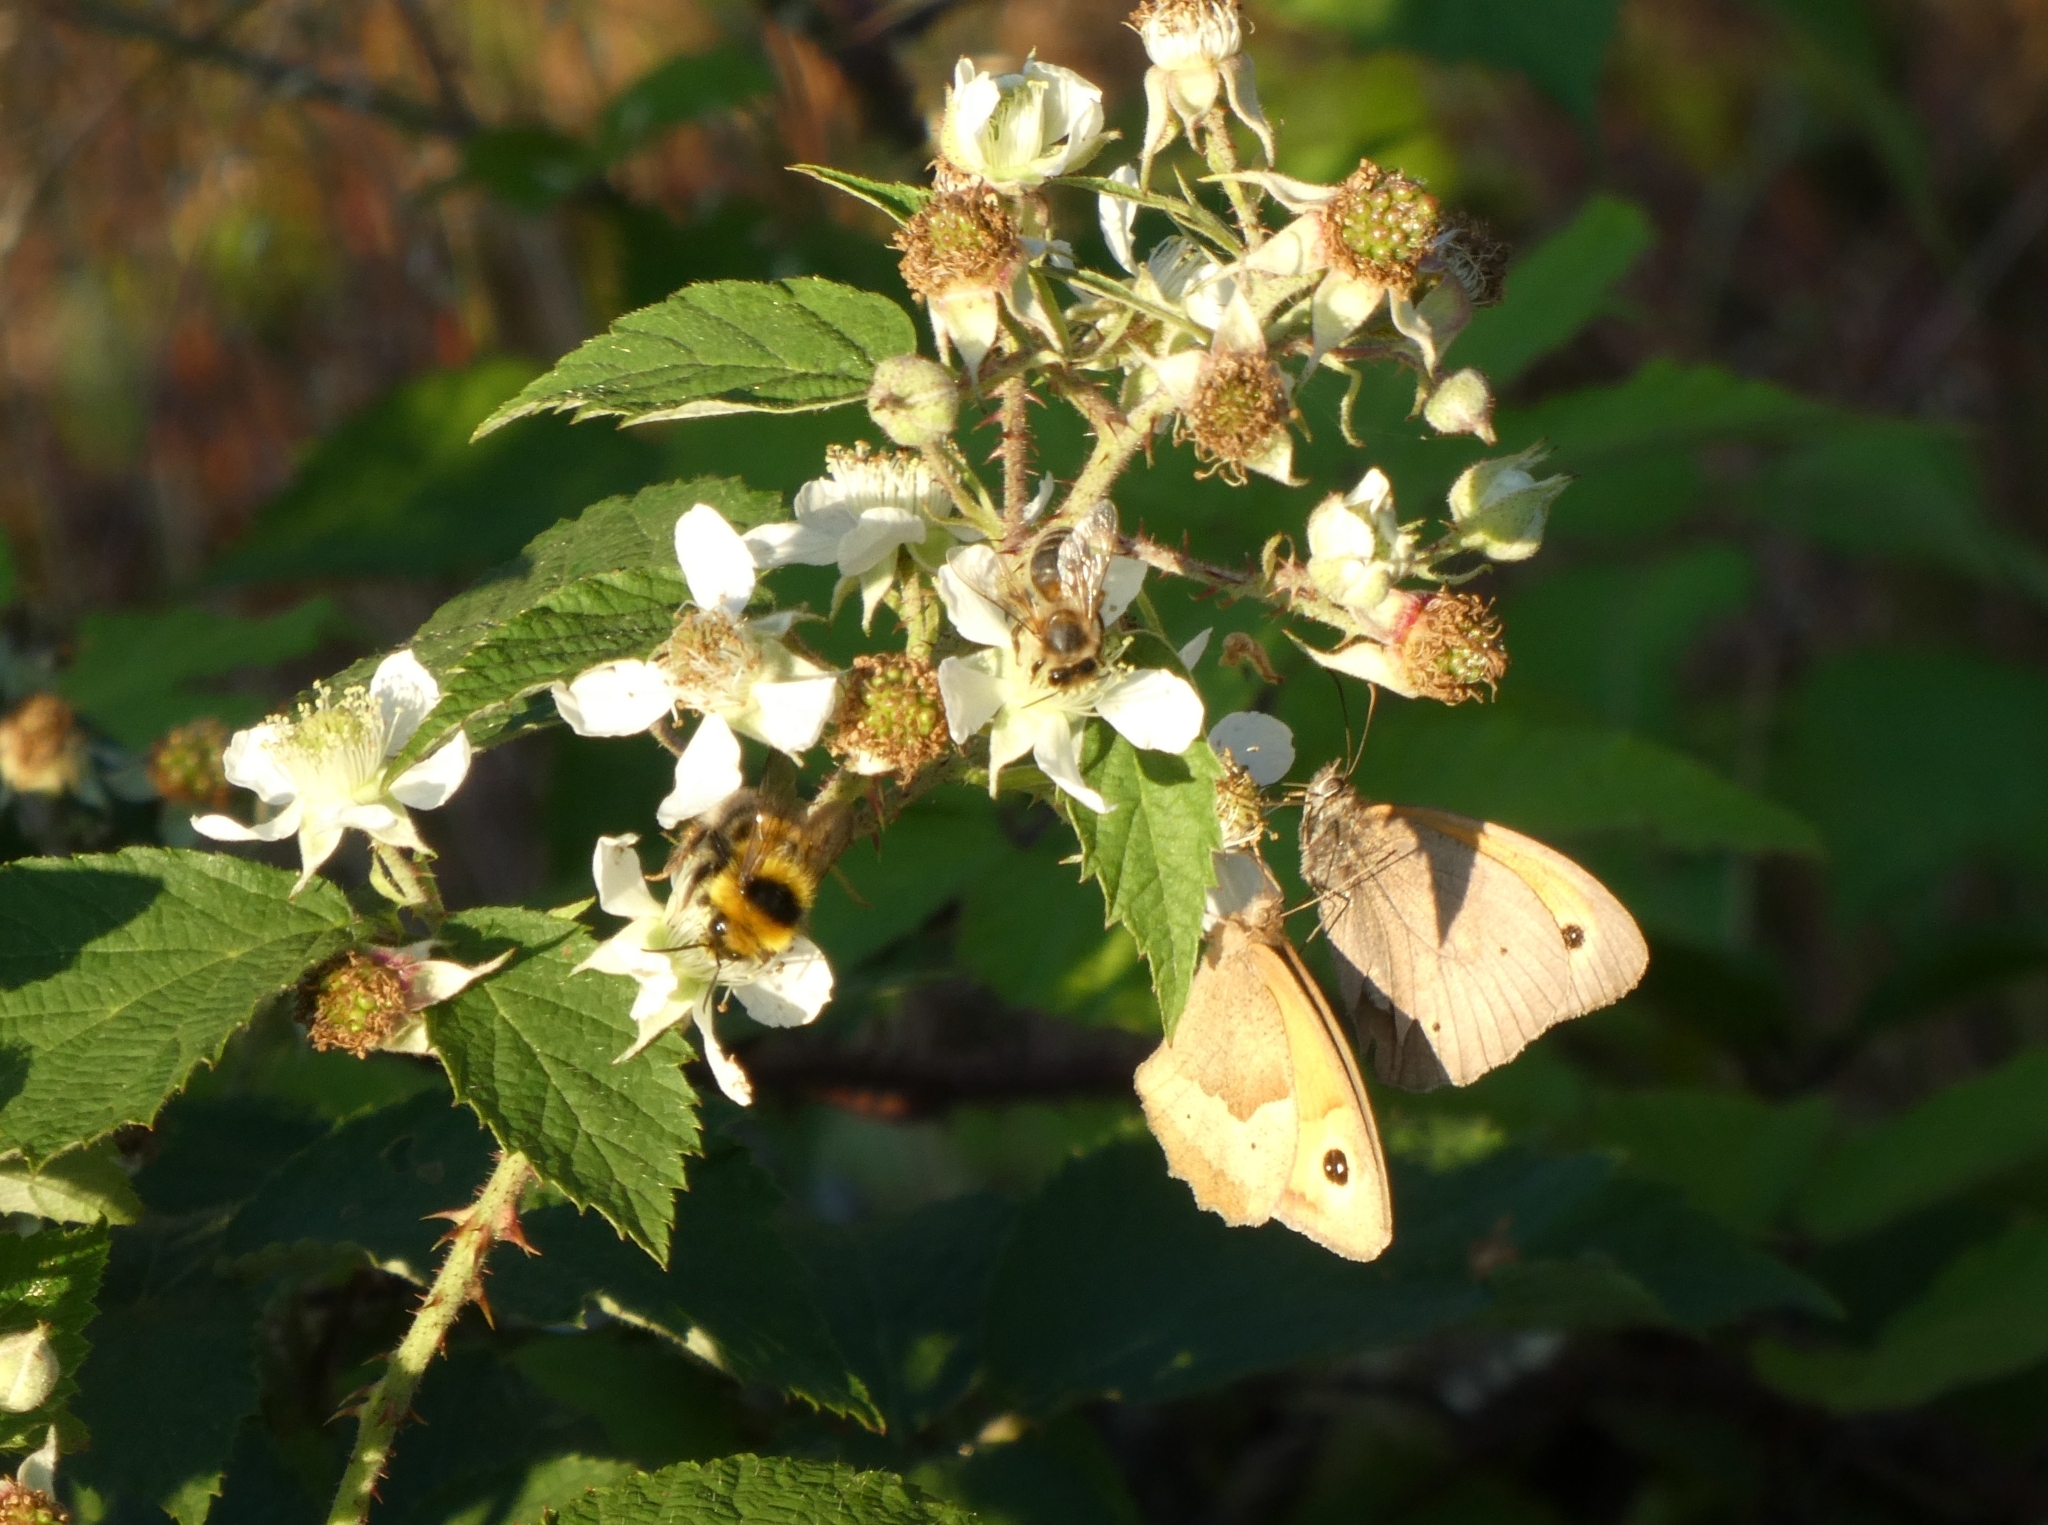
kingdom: Animalia
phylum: Arthropoda
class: Insecta
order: Lepidoptera
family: Nymphalidae
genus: Maniola
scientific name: Maniola jurtina
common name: Meadow brown
